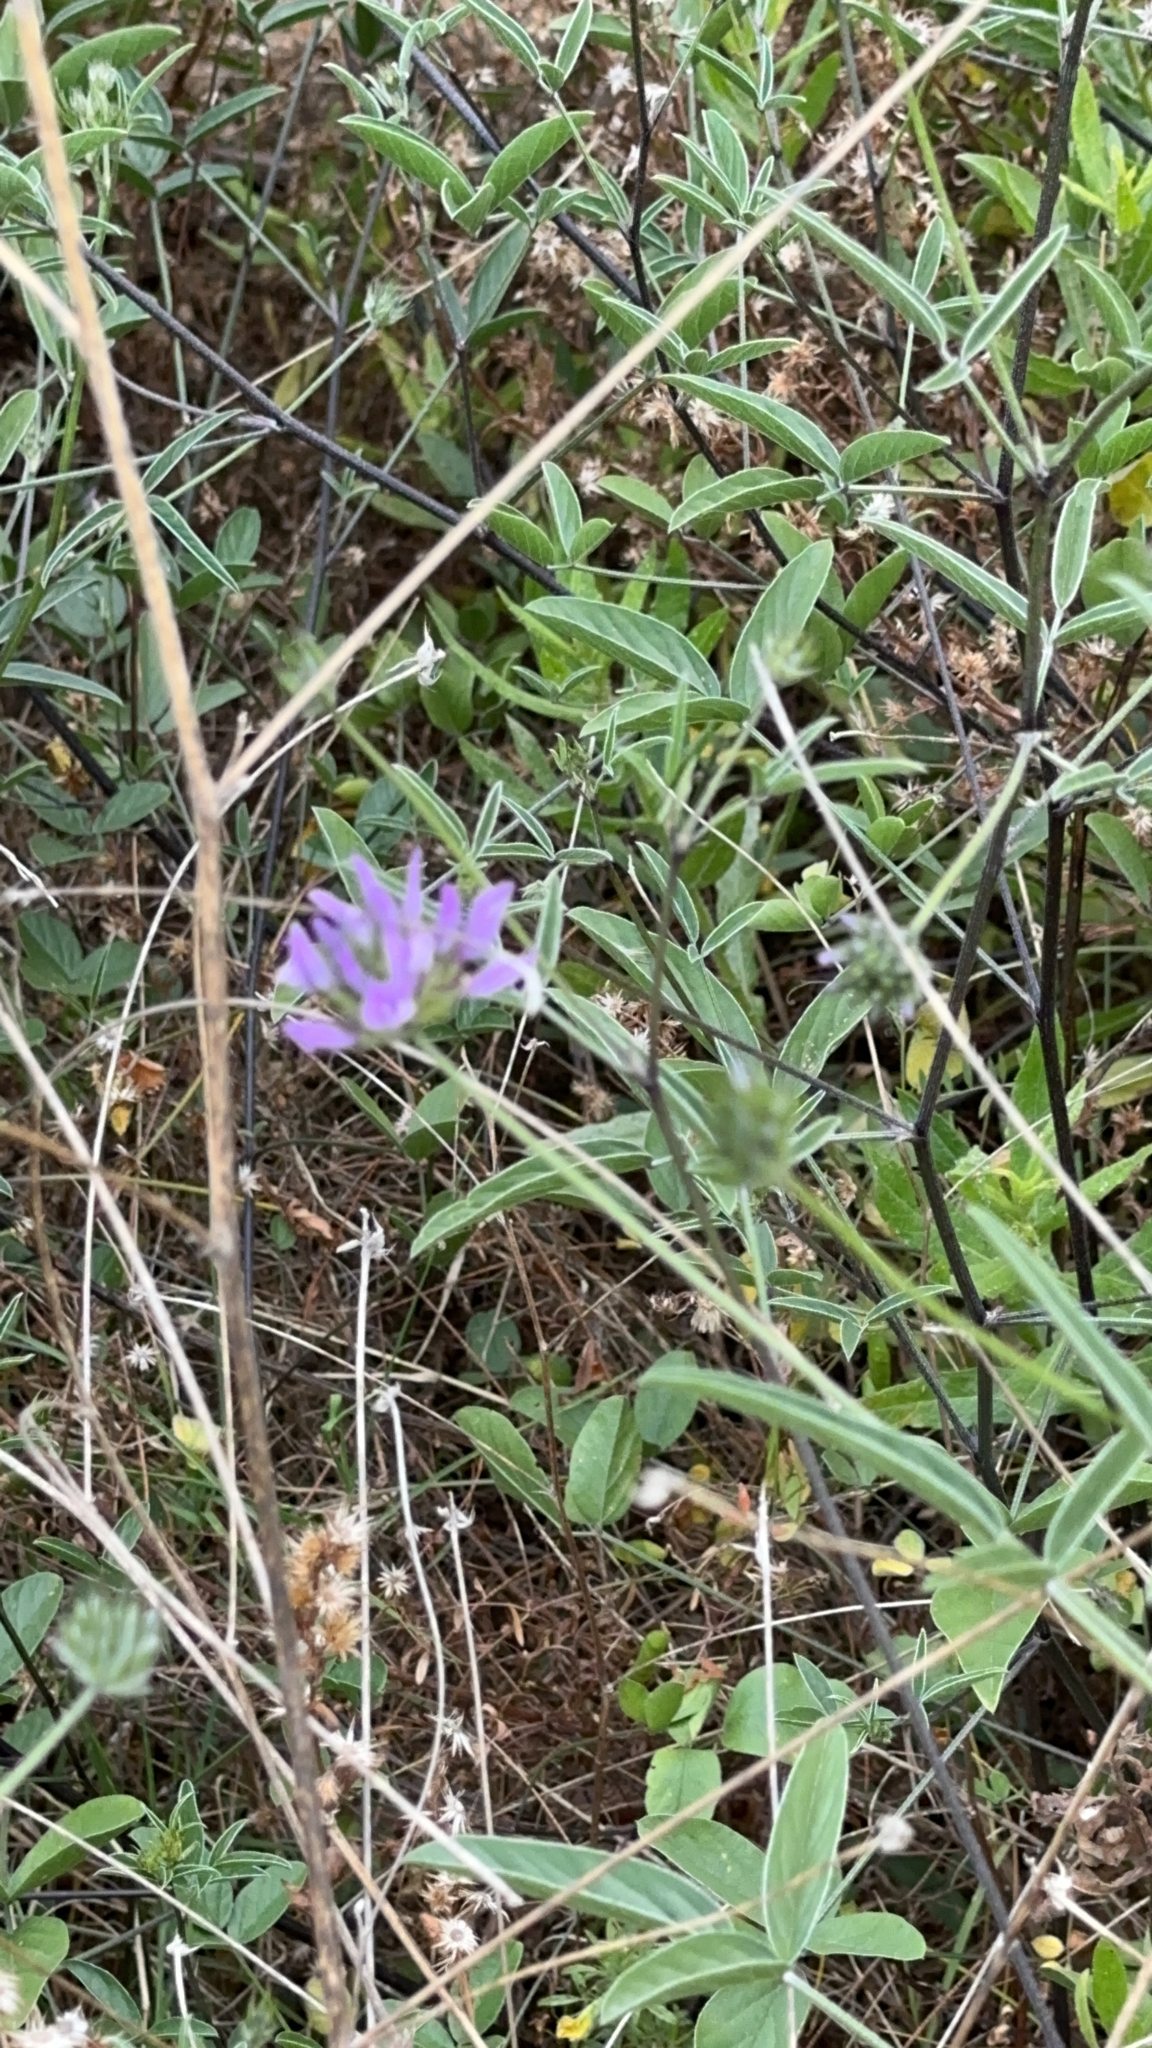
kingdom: Plantae
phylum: Tracheophyta
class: Magnoliopsida
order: Fabales
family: Fabaceae
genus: Bituminaria
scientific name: Bituminaria bituminosa
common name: Arabian pea
